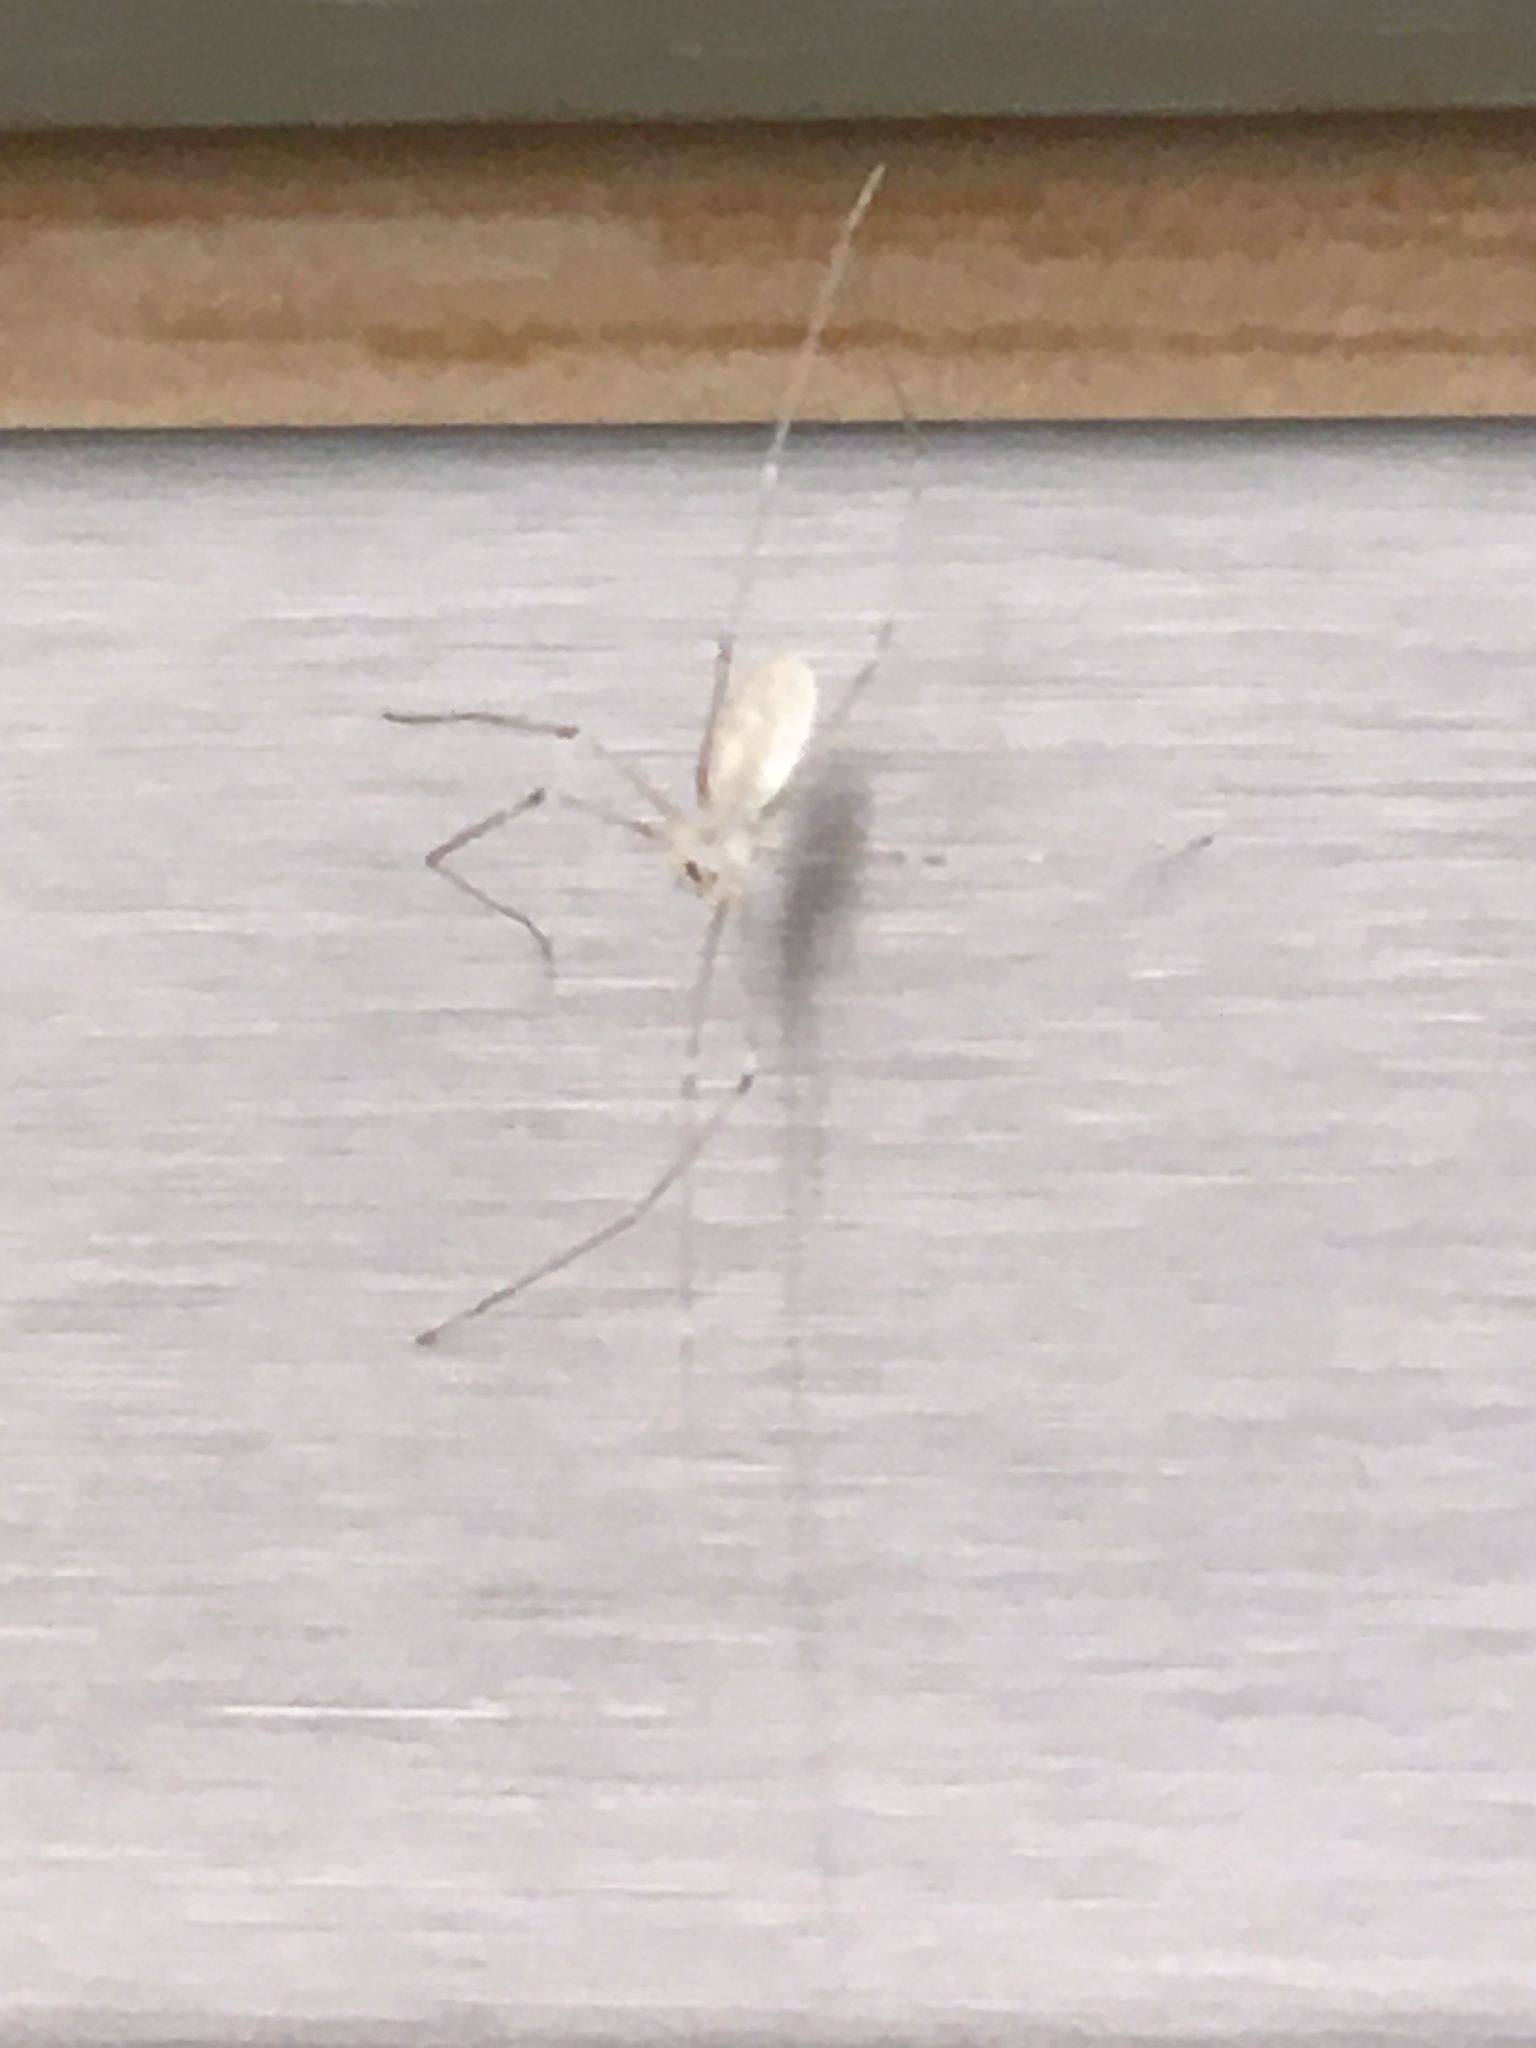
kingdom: Animalia
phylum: Arthropoda
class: Arachnida
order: Araneae
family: Pholcidae
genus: Pholcus
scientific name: Pholcus phalangioides
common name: Longbodied cellar spider
